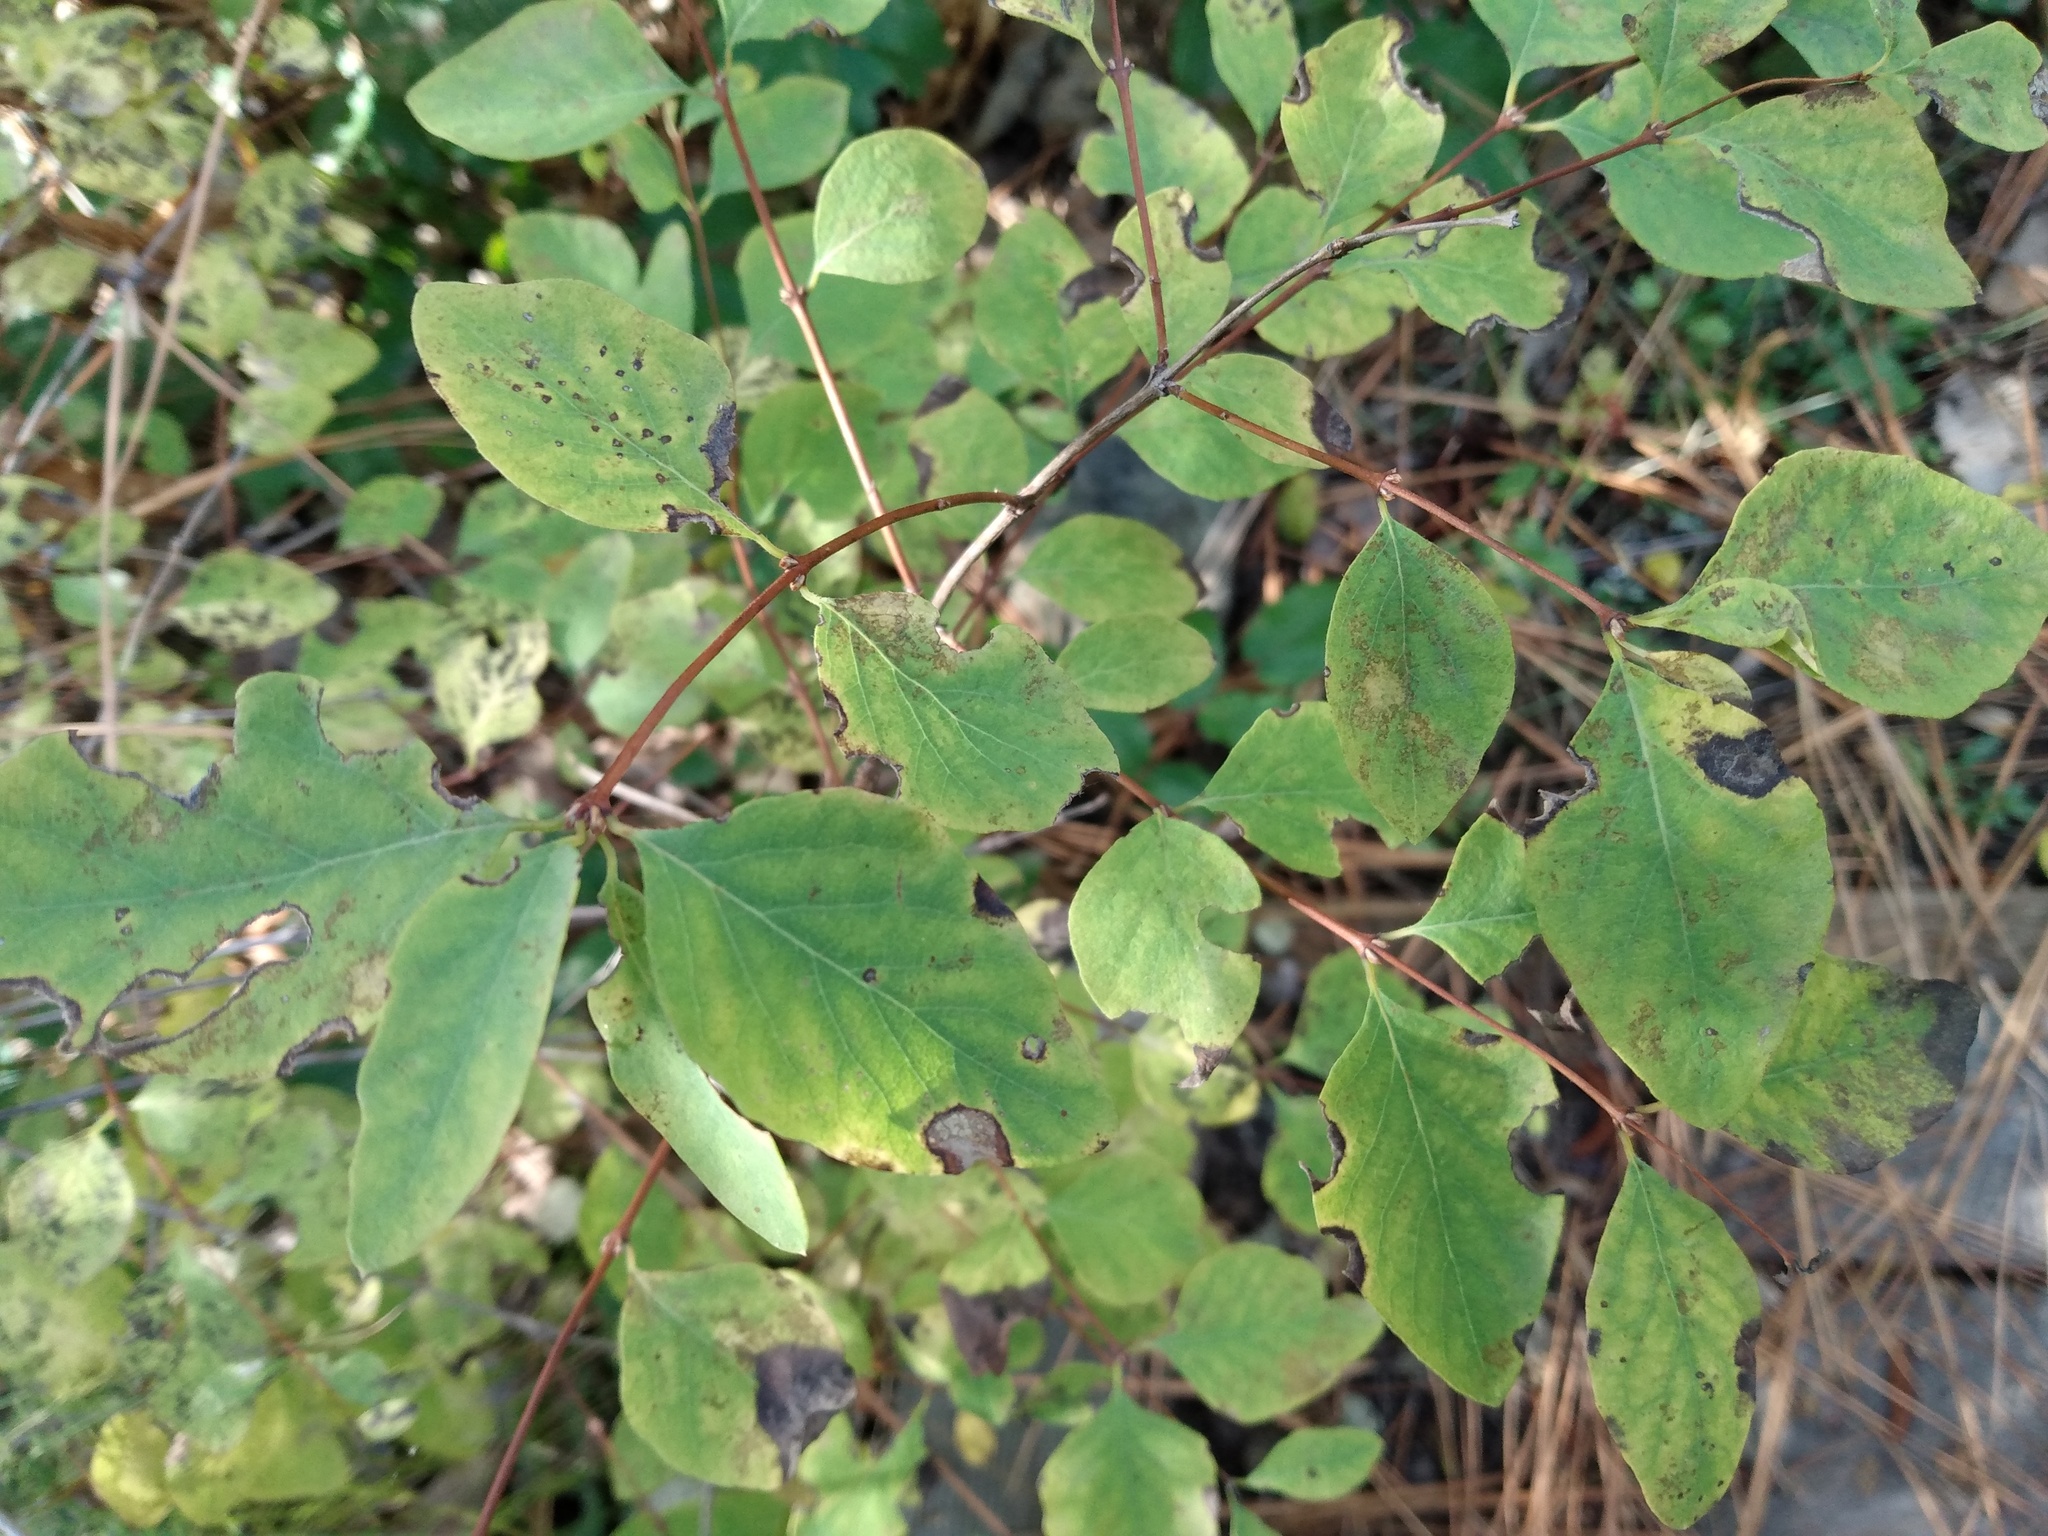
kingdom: Plantae
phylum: Tracheophyta
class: Magnoliopsida
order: Dipsacales
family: Caprifoliaceae
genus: Symphoricarpos
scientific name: Symphoricarpos albus
